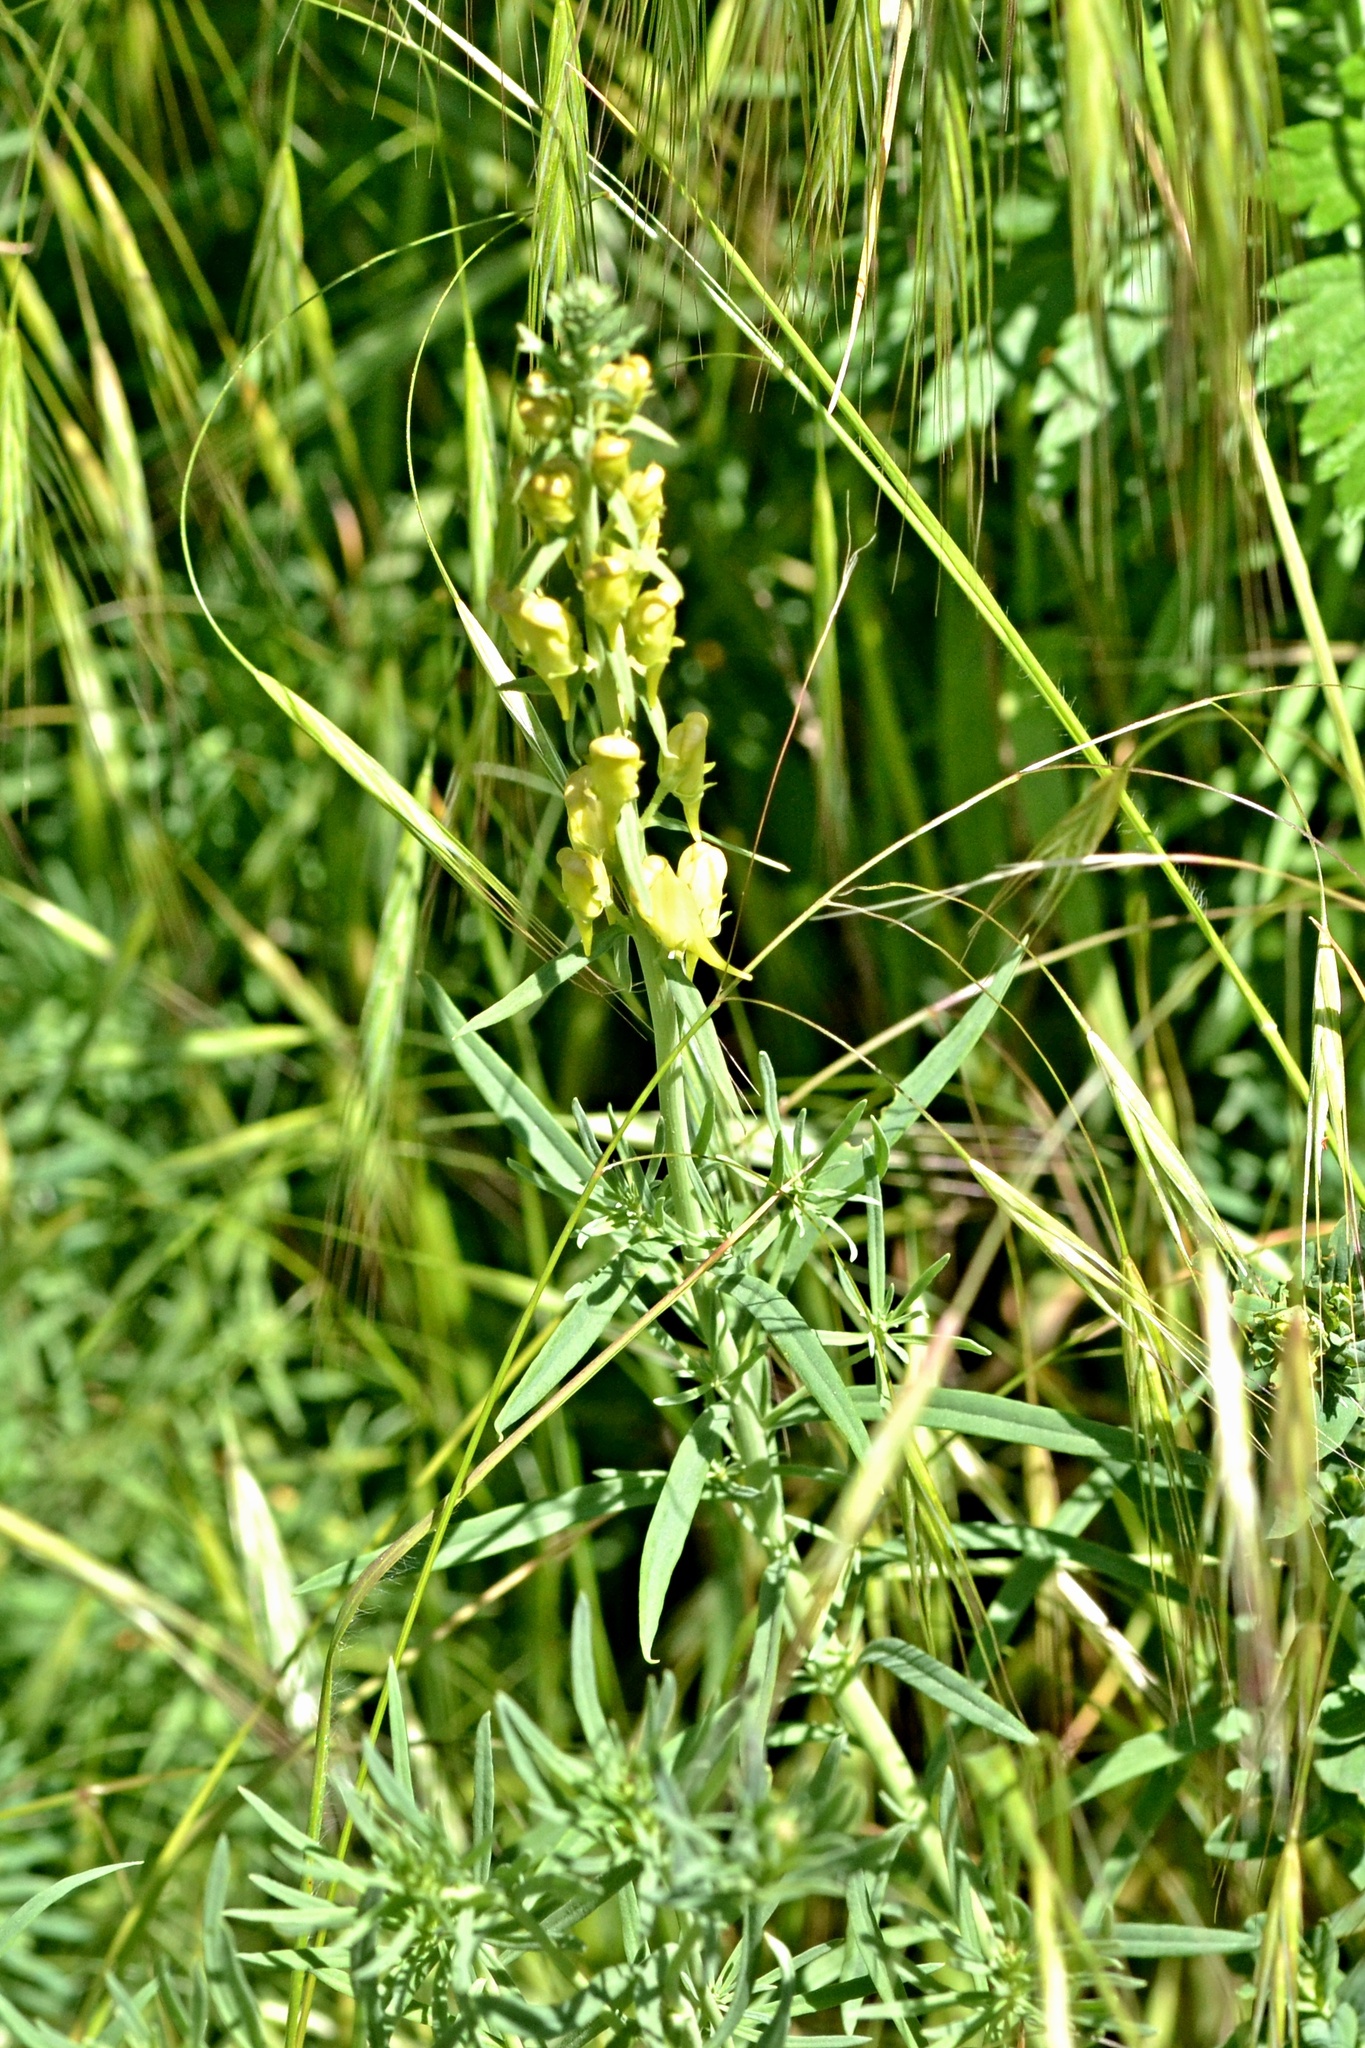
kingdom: Plantae
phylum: Tracheophyta
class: Magnoliopsida
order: Lamiales
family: Plantaginaceae
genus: Linaria
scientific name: Linaria vulgaris
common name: Butter and eggs
